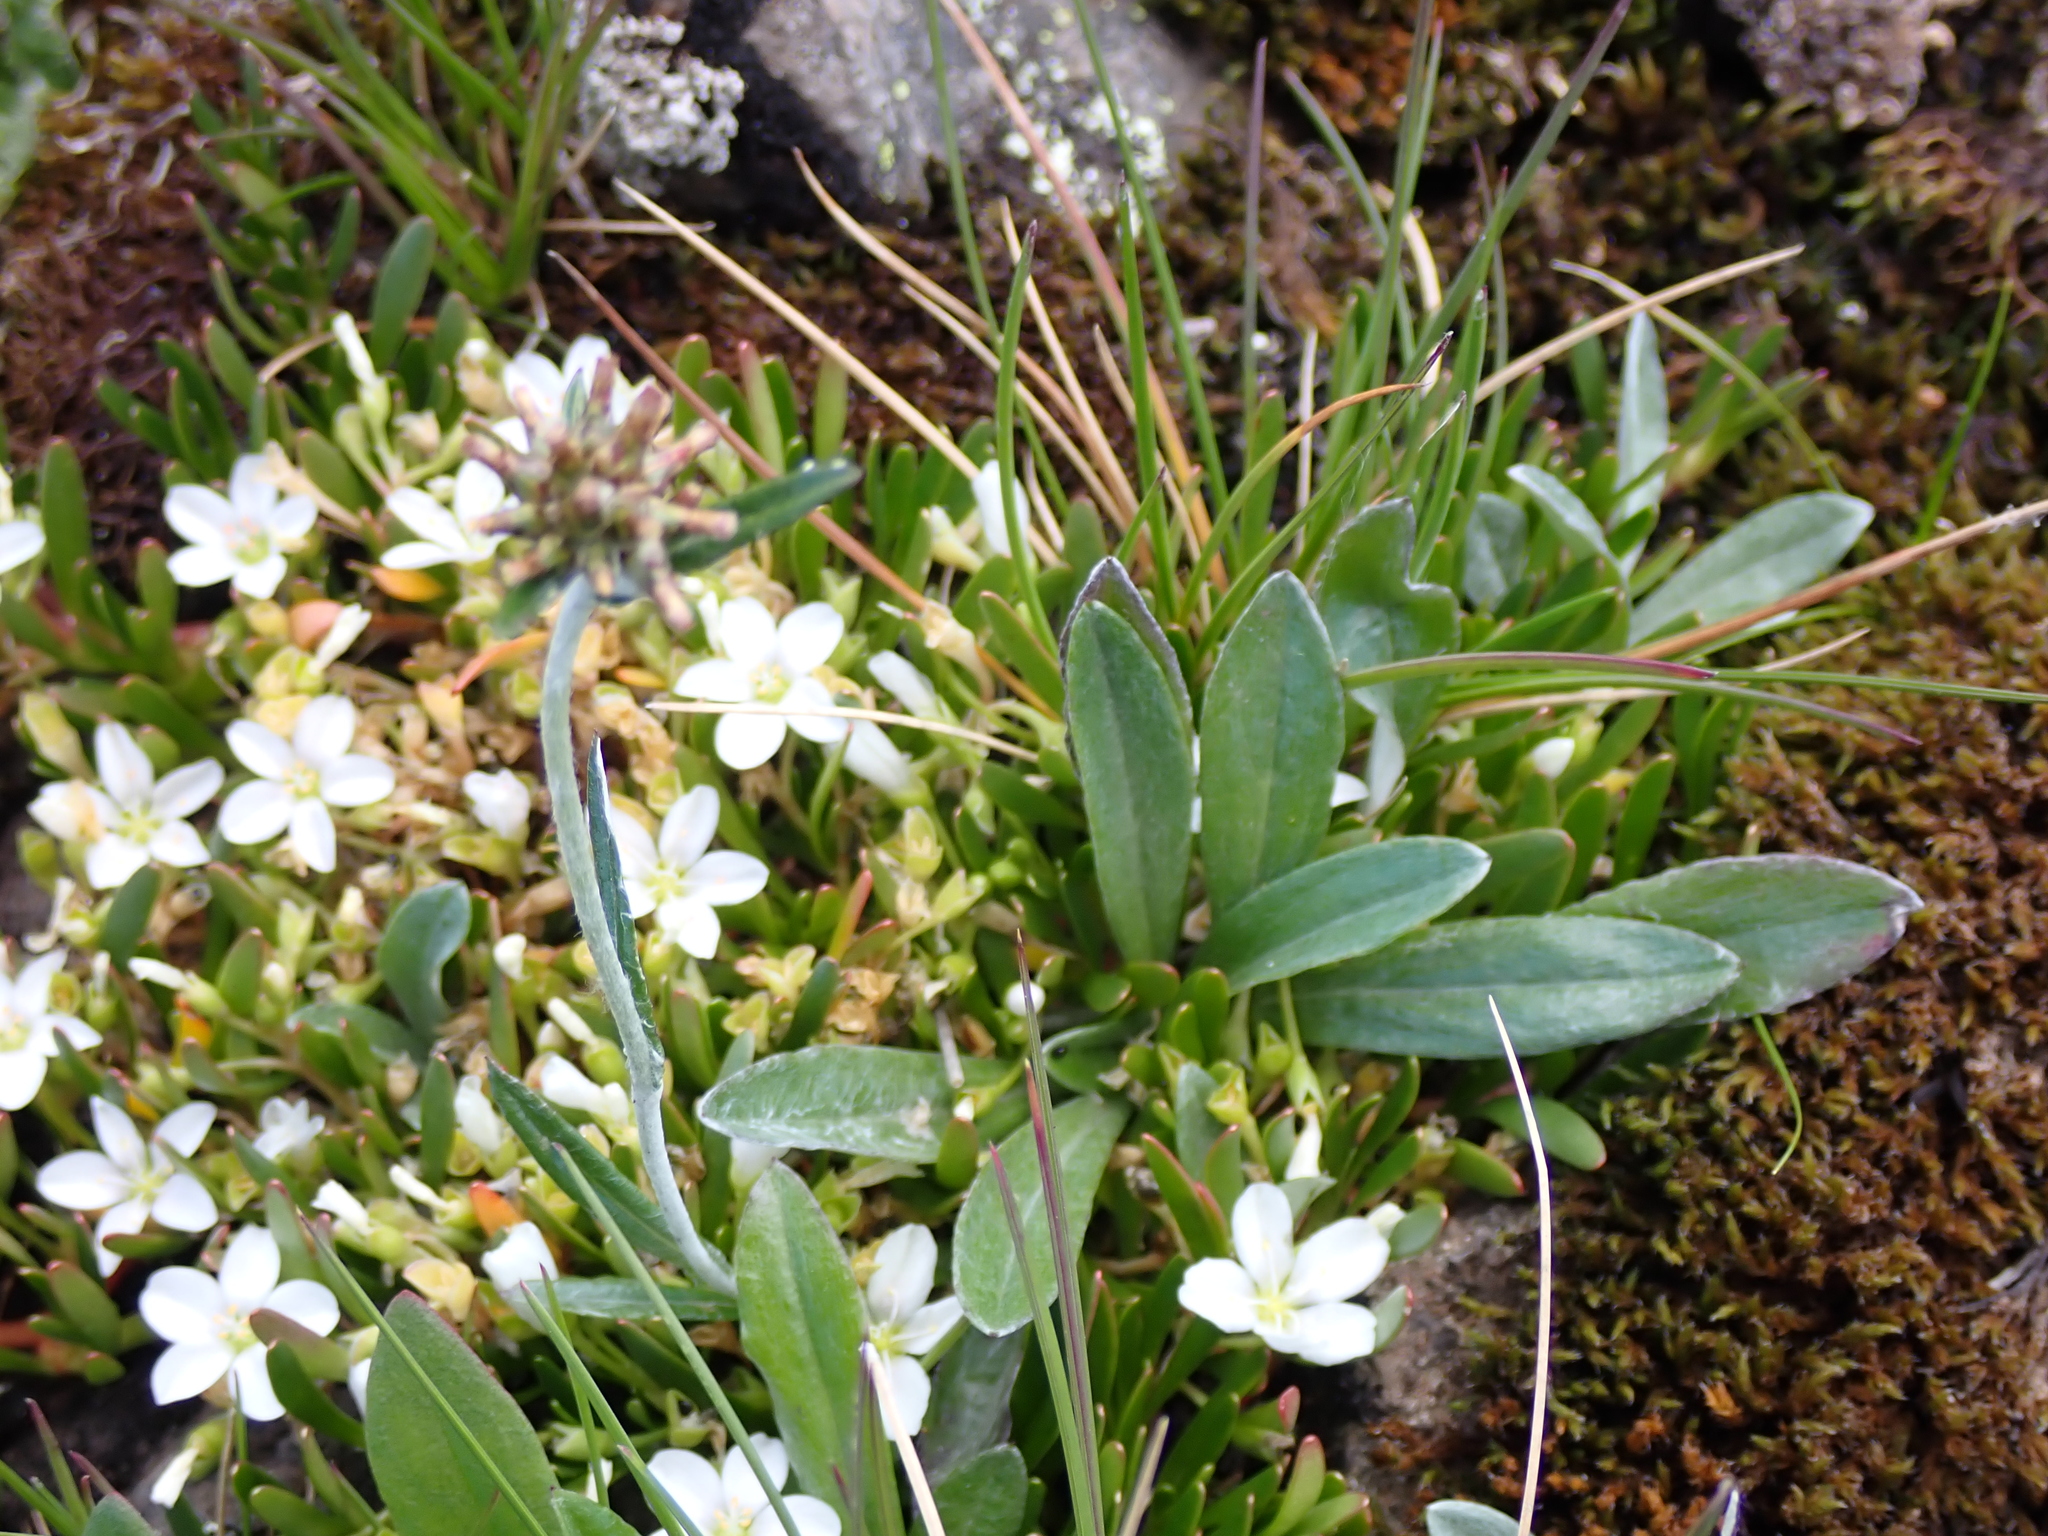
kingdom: Plantae
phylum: Tracheophyta
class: Magnoliopsida
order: Asterales
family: Asteraceae
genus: Euchiton
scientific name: Euchiton japonicus
